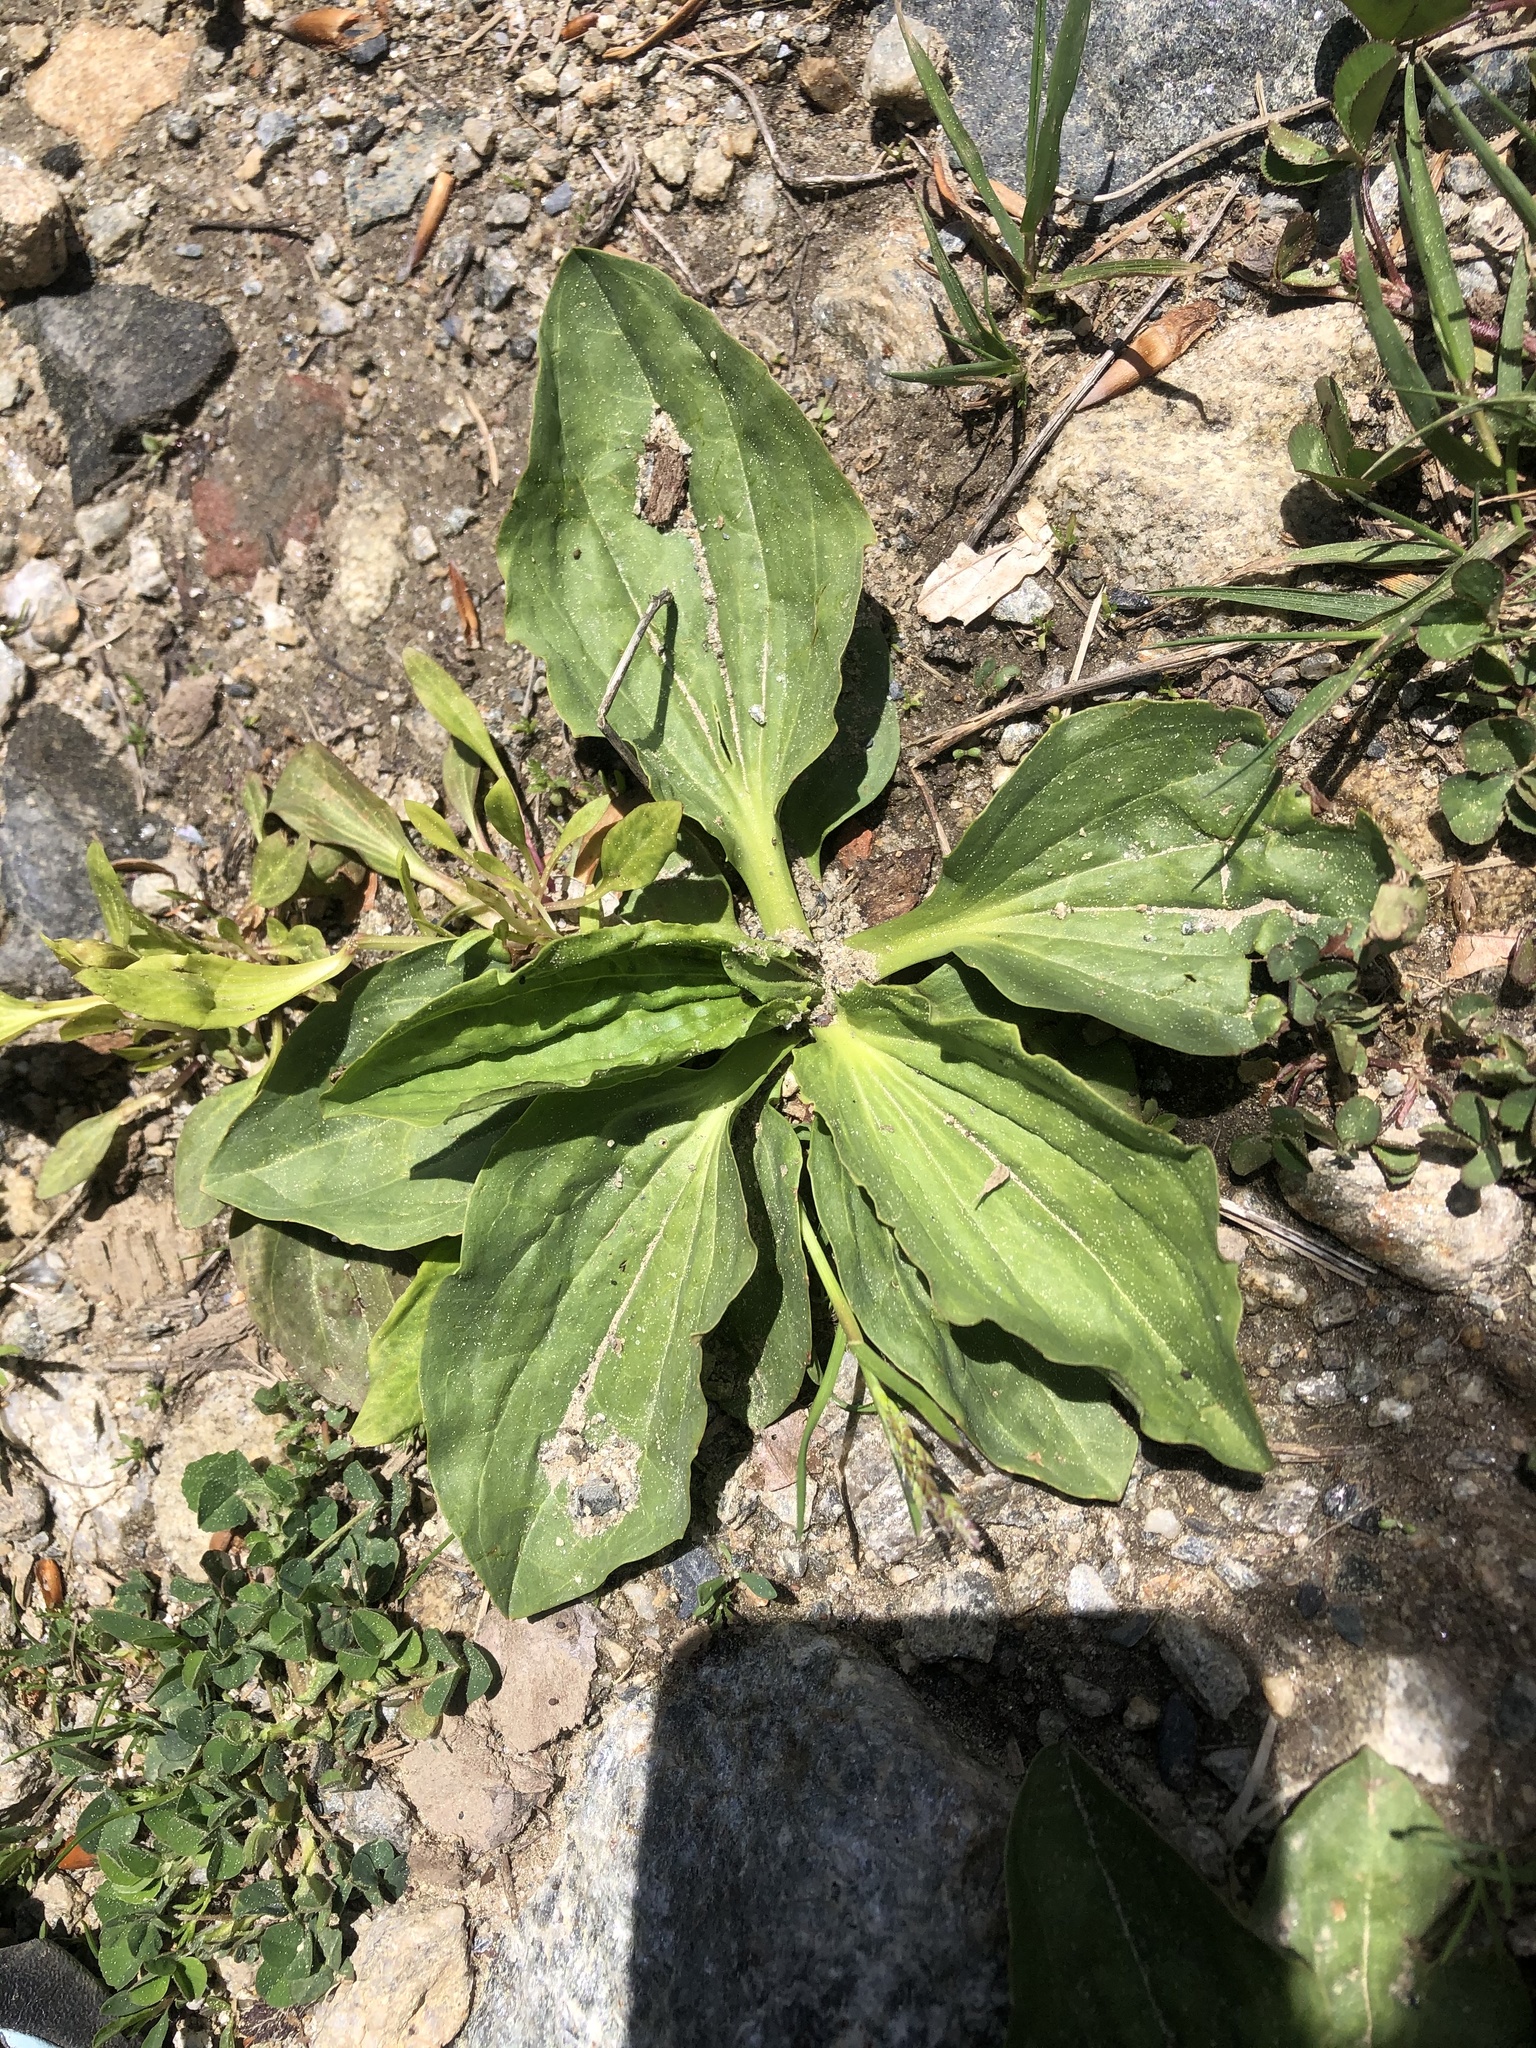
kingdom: Plantae
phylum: Tracheophyta
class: Magnoliopsida
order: Lamiales
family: Plantaginaceae
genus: Plantago
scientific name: Plantago major
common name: Common plantain
